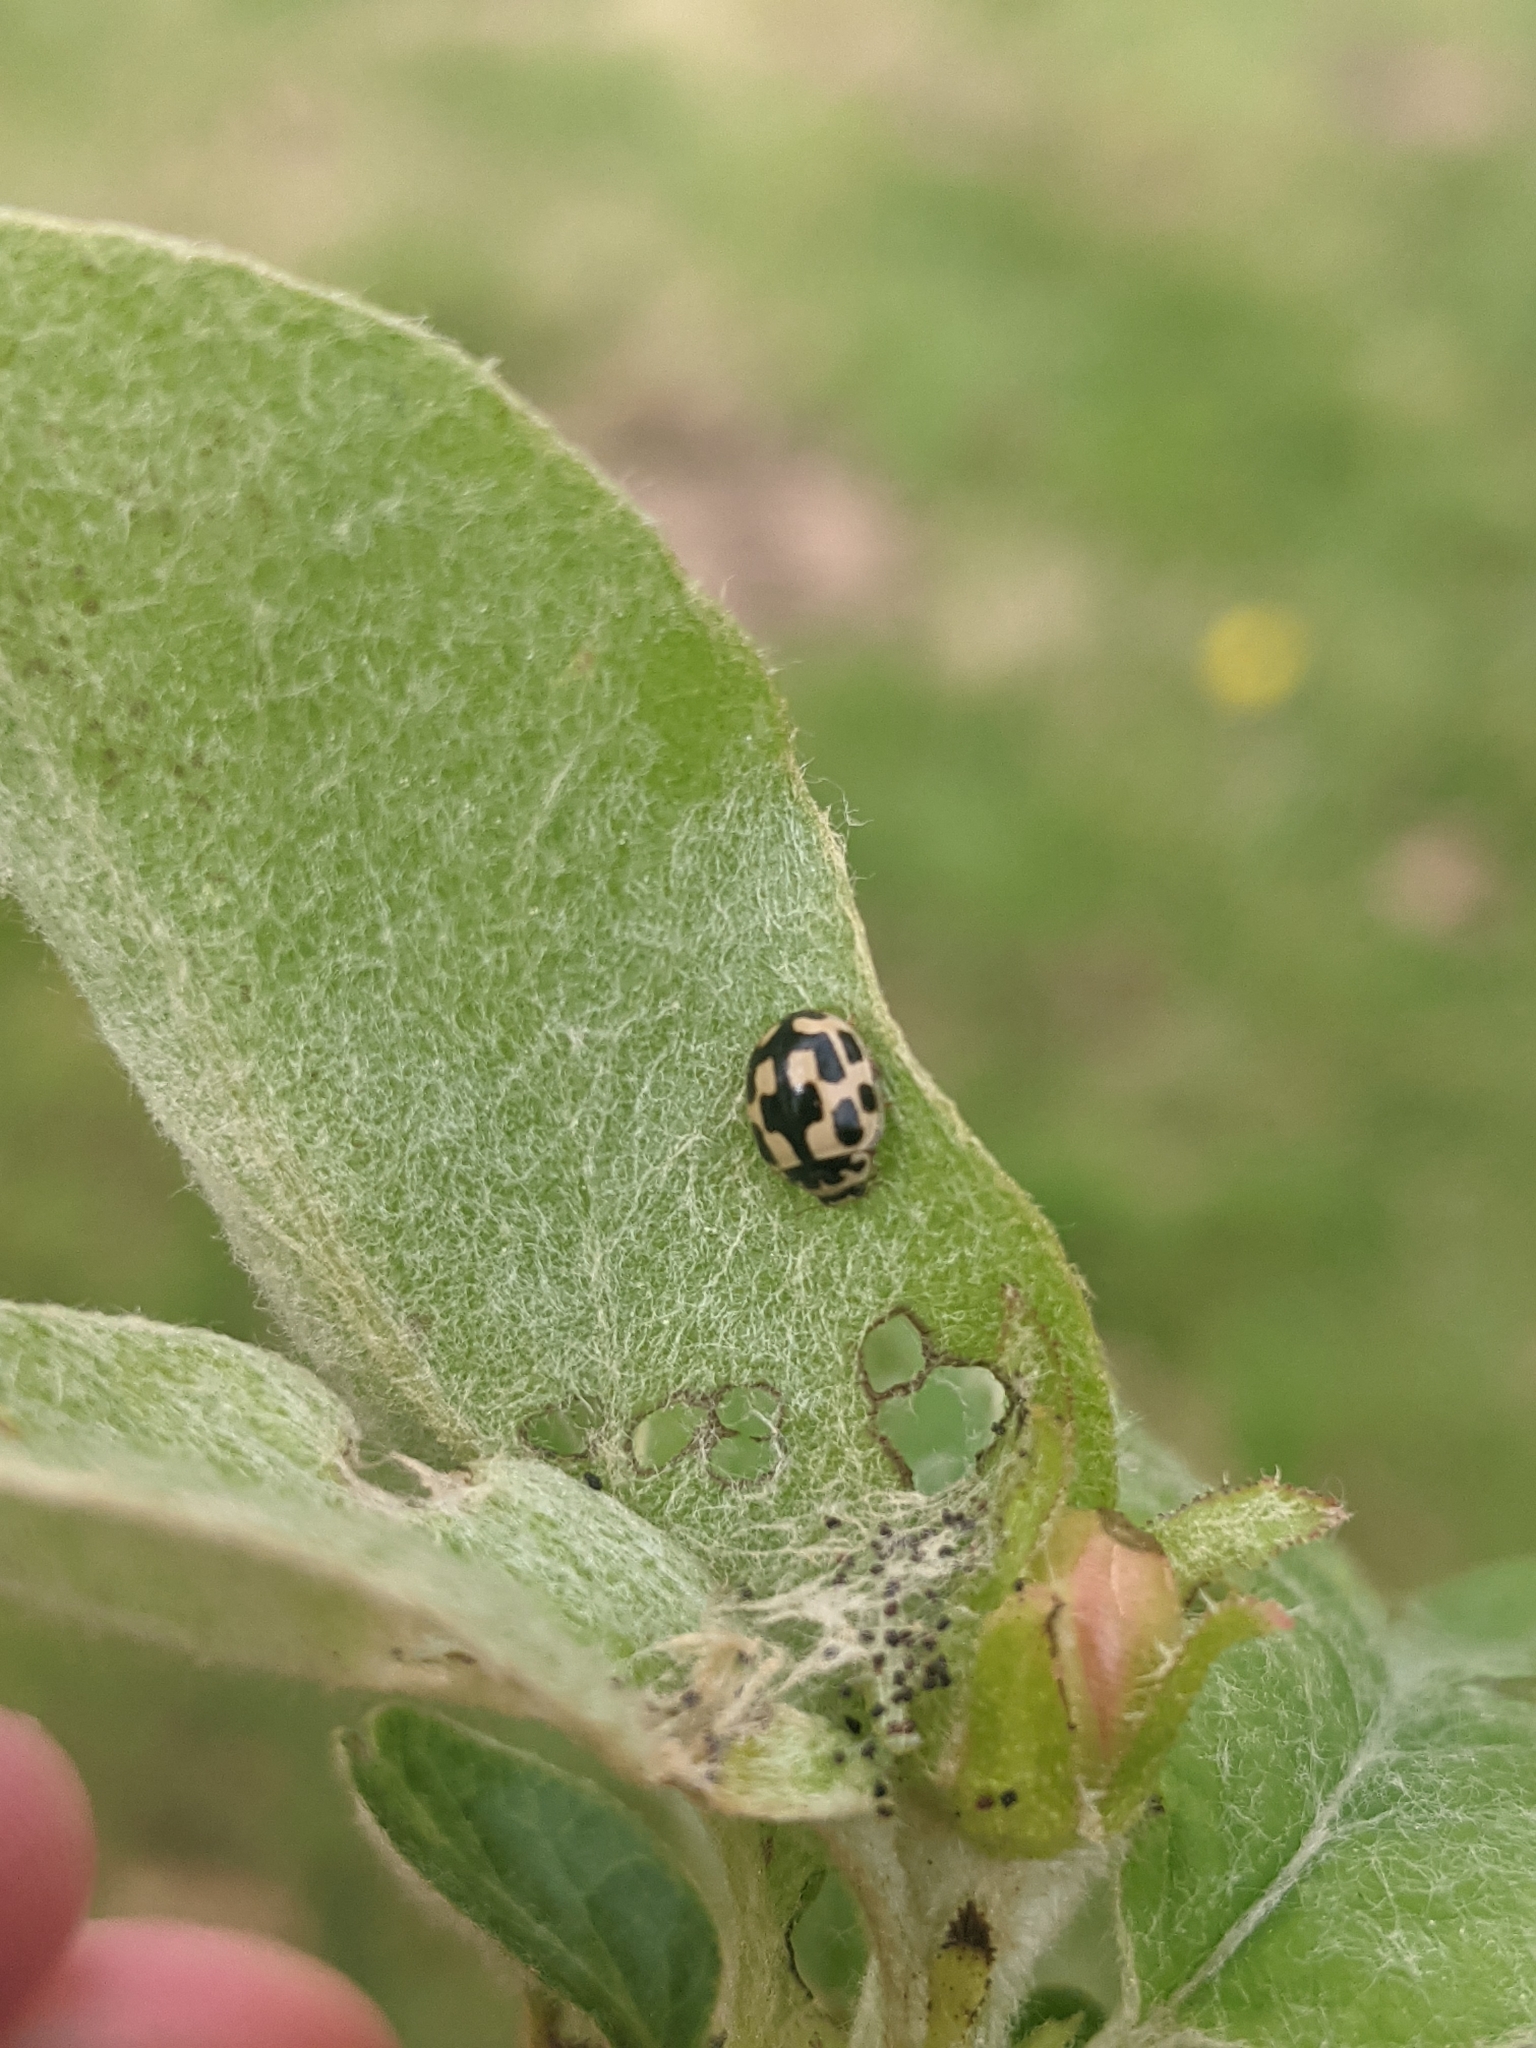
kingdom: Animalia
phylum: Arthropoda
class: Insecta
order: Coleoptera
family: Coccinellidae
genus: Propylaea
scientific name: Propylaea quatuordecimpunctata
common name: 14-spotted ladybird beetle
